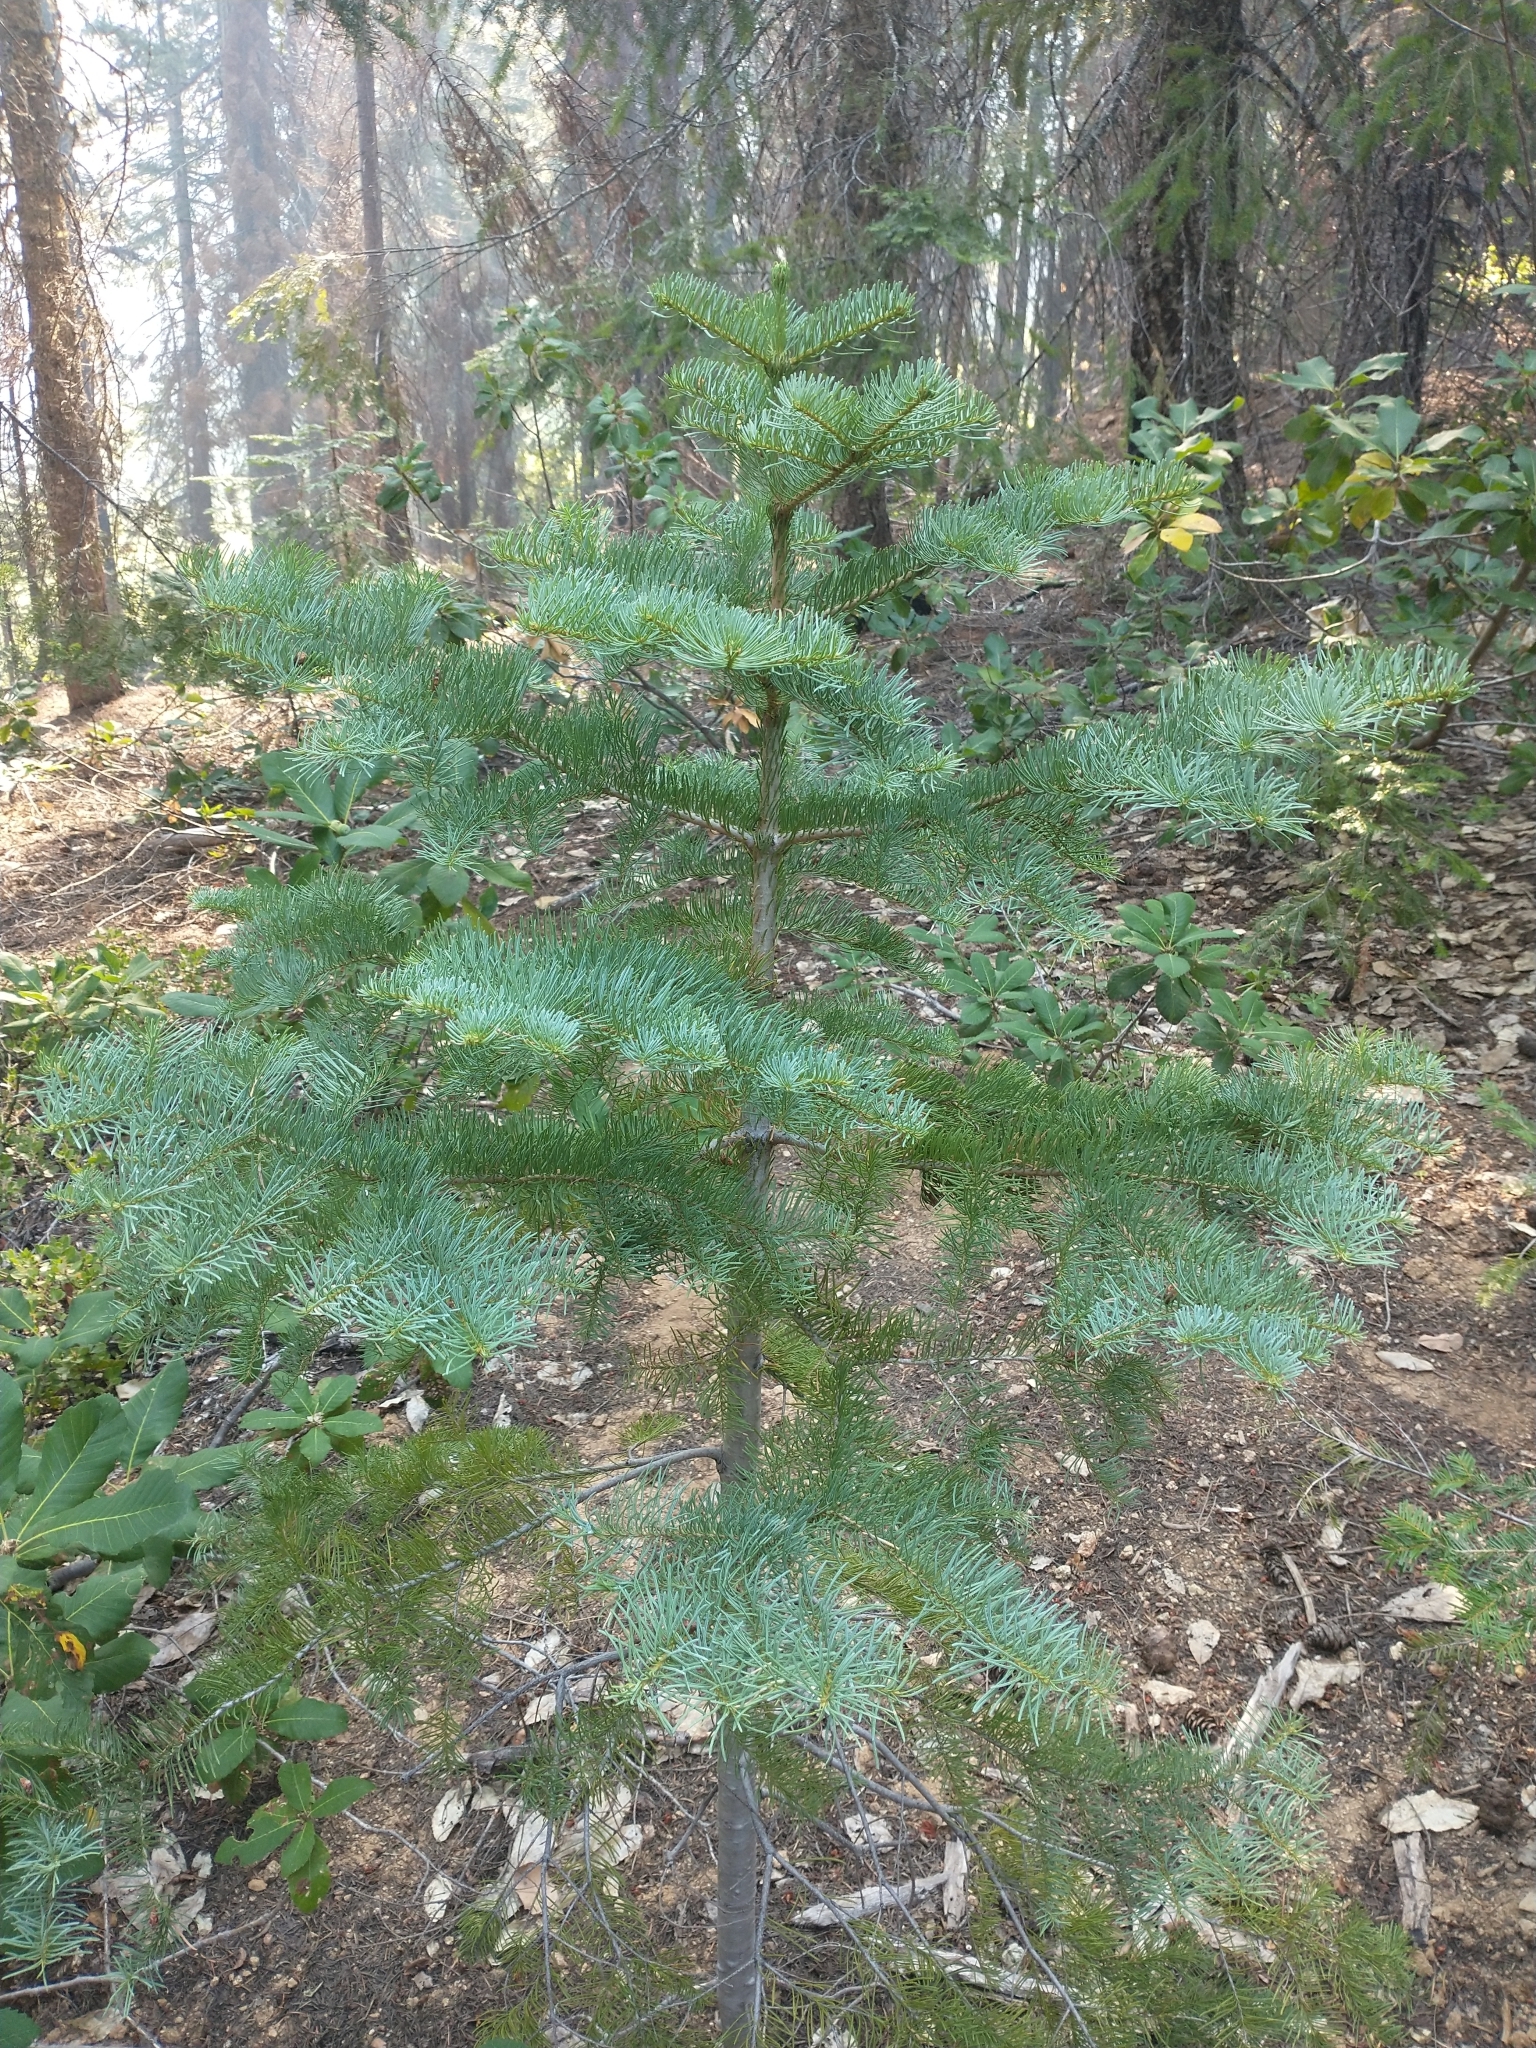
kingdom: Plantae
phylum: Tracheophyta
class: Pinopsida
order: Pinales
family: Pinaceae
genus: Abies
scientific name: Abies magnifica bis
